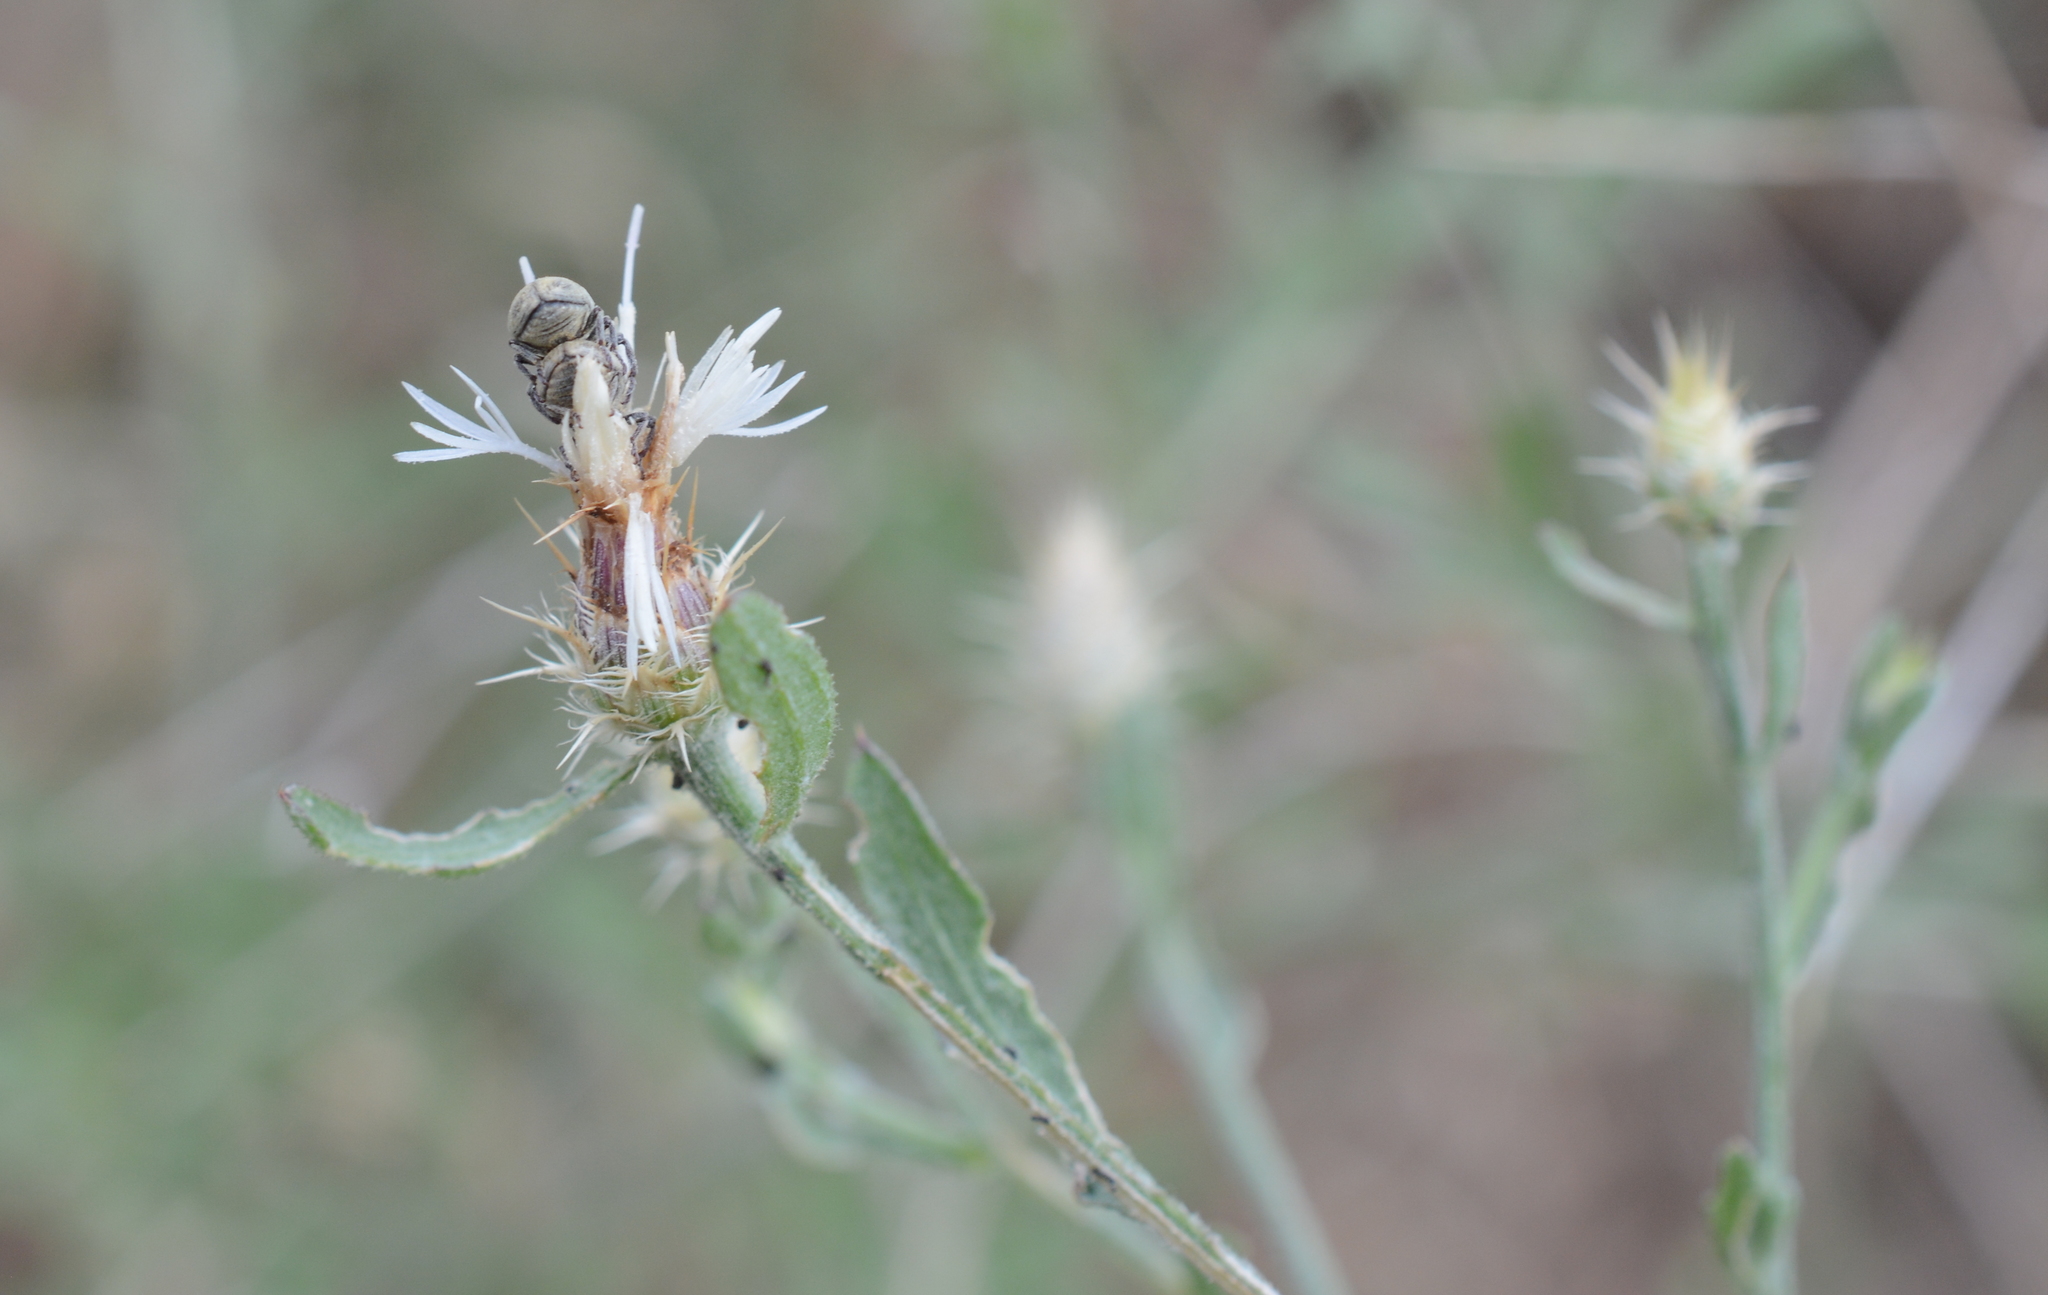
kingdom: Animalia
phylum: Arthropoda
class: Insecta
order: Coleoptera
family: Curculionidae
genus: Larinus
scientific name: Larinus minutus
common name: Weevil
